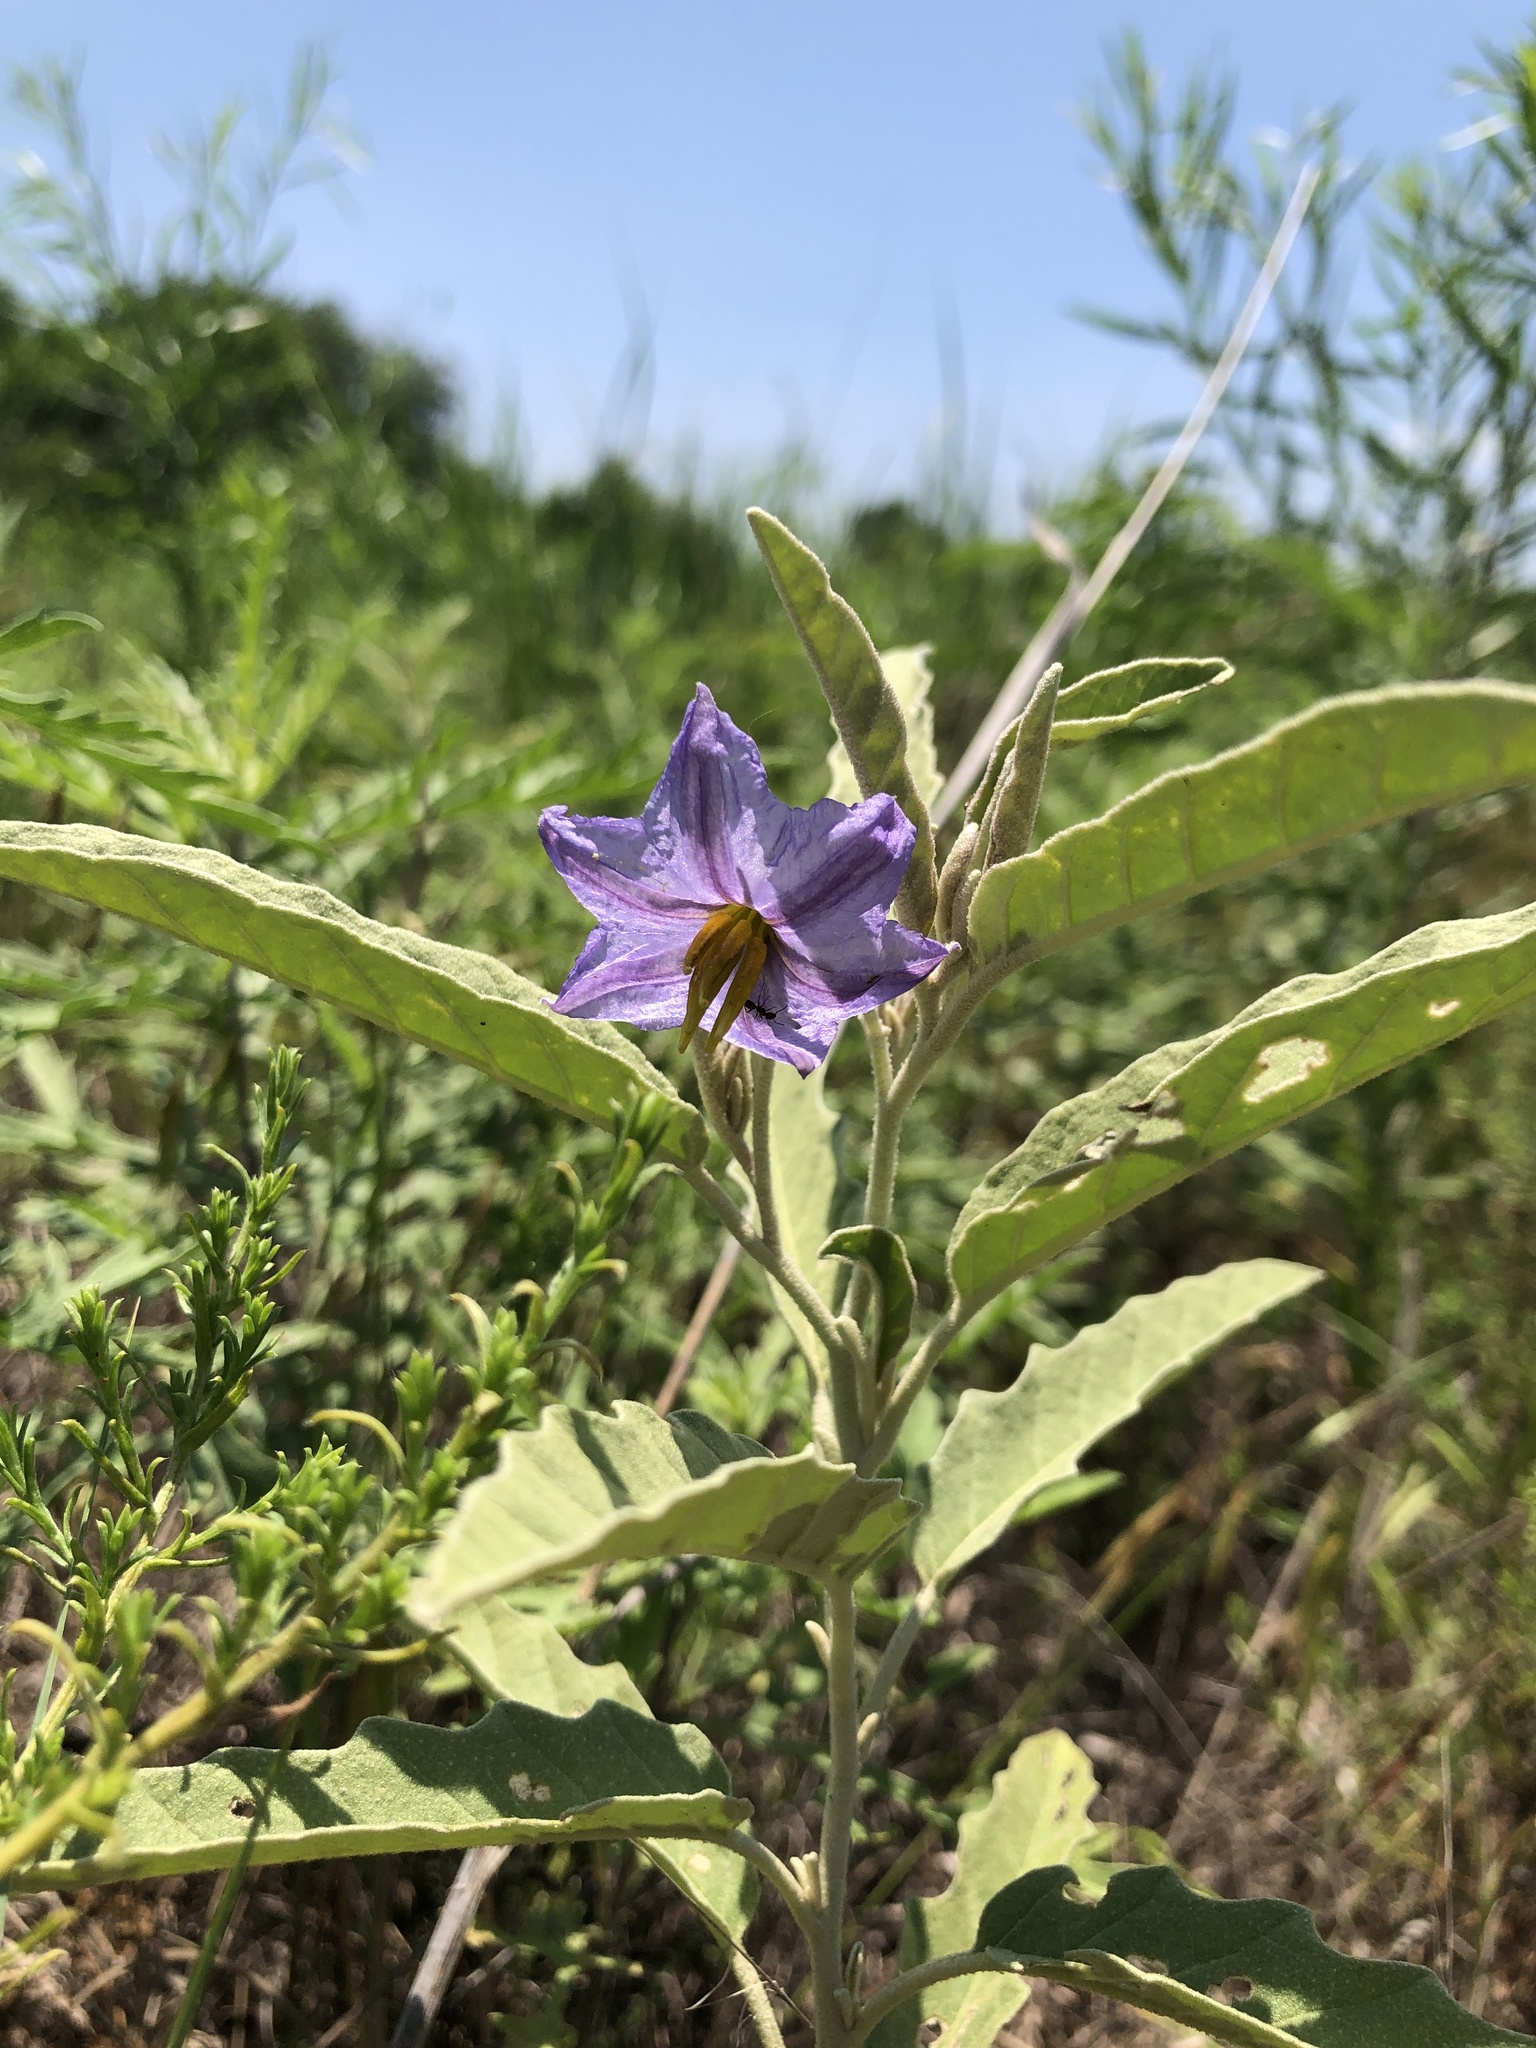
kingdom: Plantae
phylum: Tracheophyta
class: Magnoliopsida
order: Solanales
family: Solanaceae
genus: Solanum
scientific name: Solanum elaeagnifolium
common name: Silverleaf nightshade
